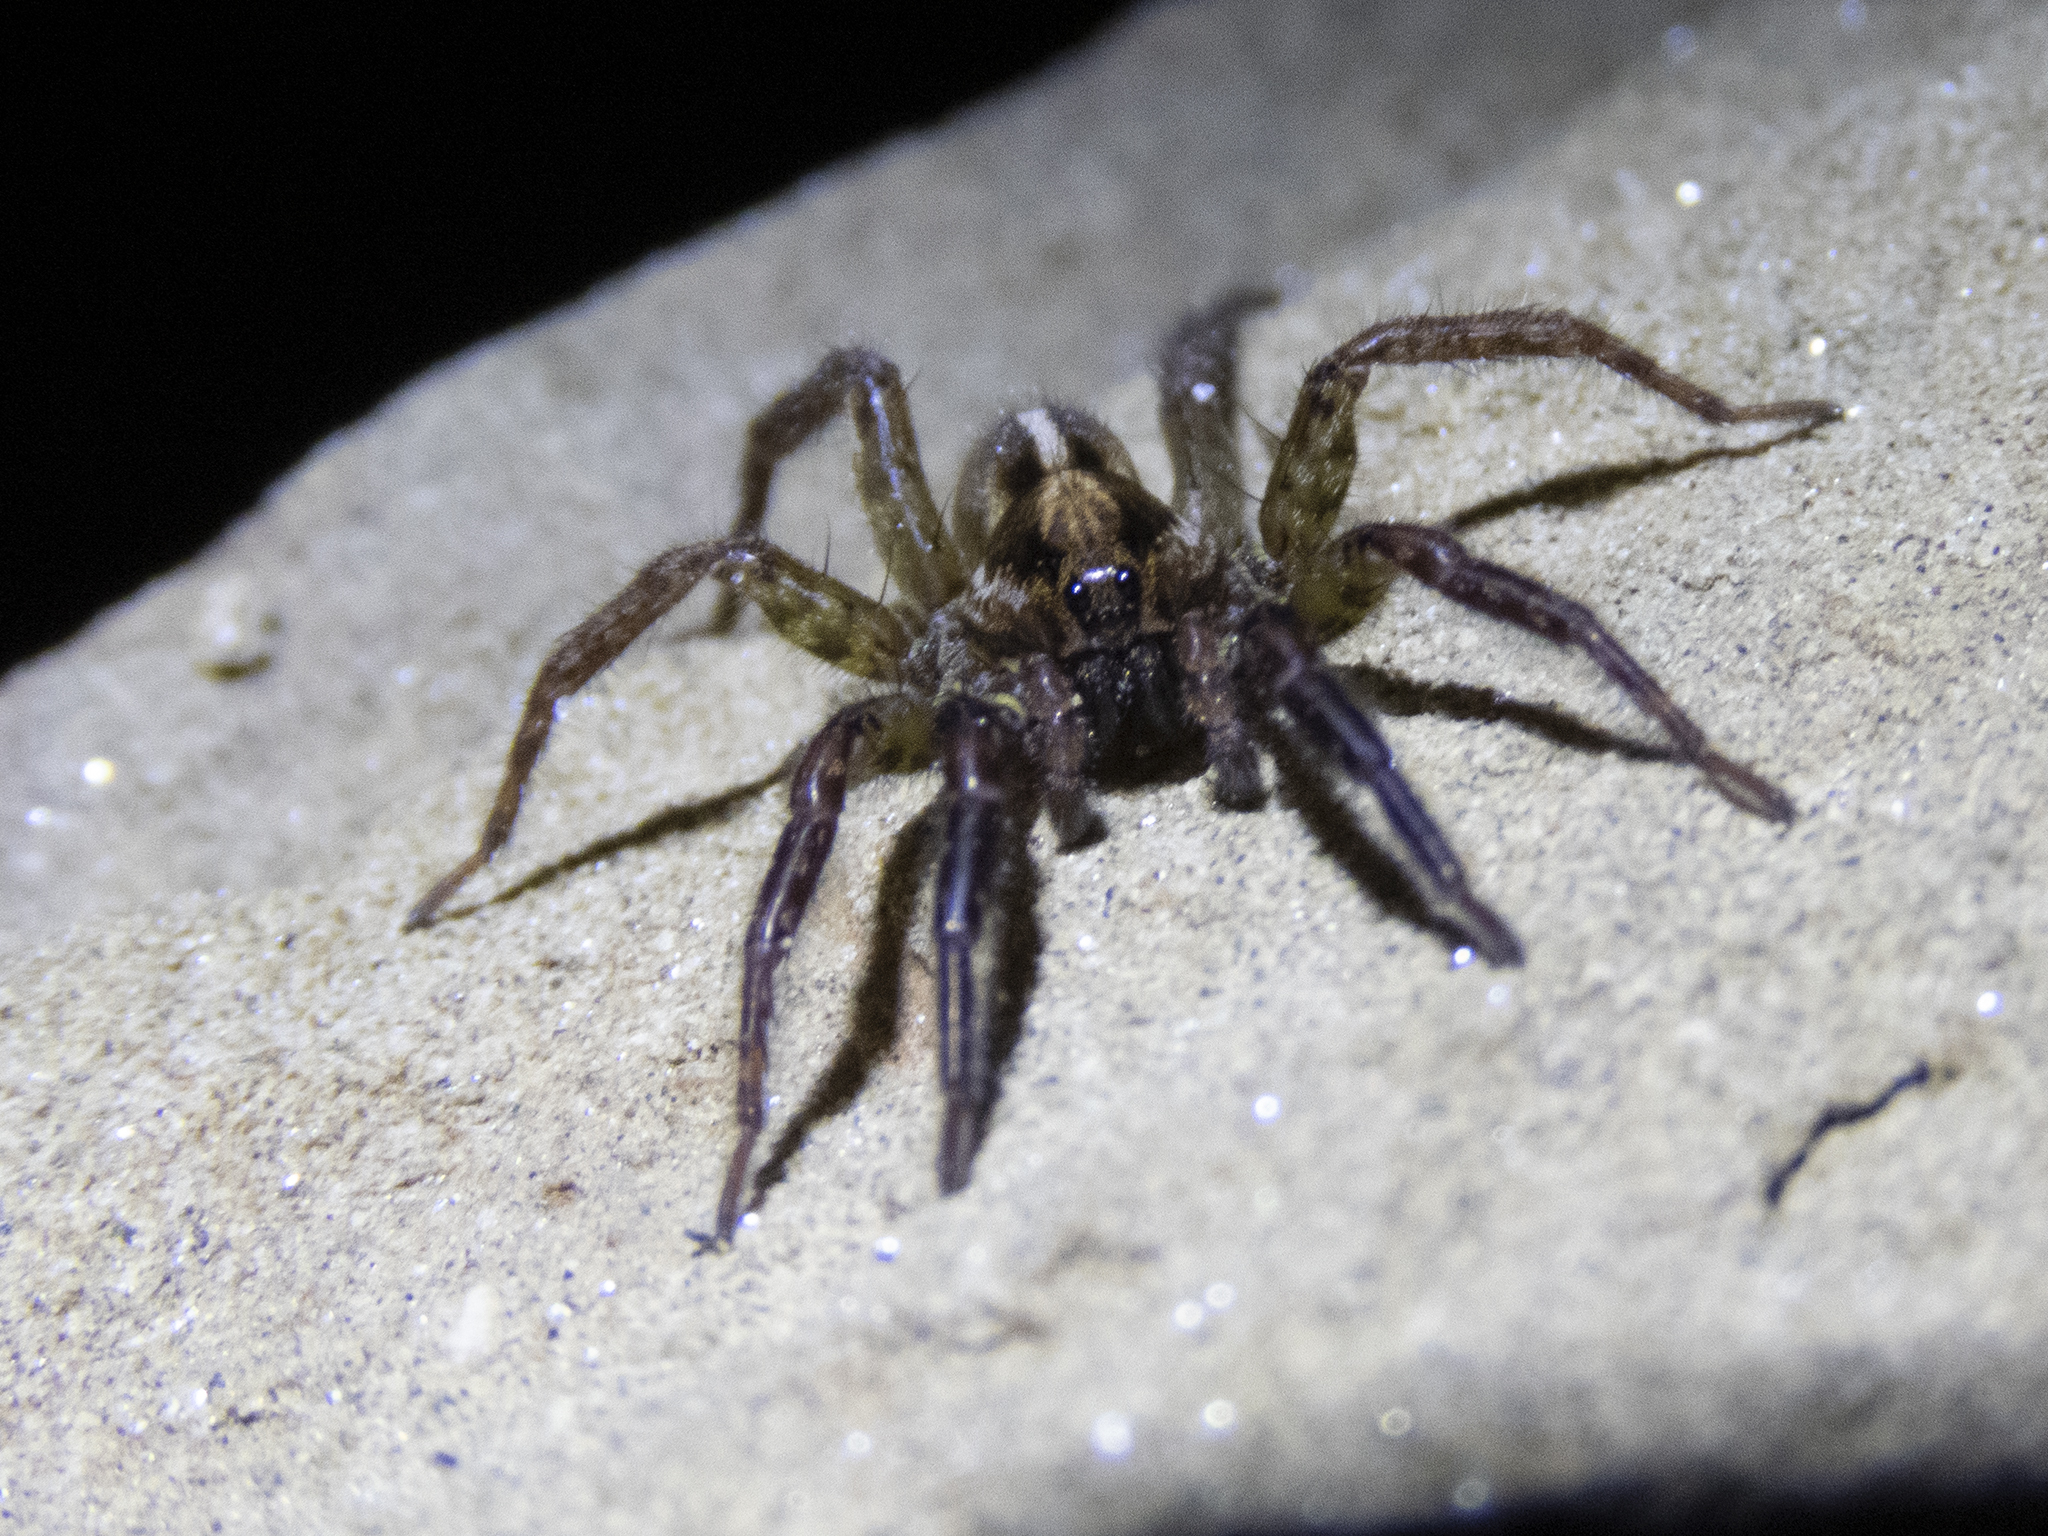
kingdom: Animalia
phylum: Arthropoda
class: Arachnida
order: Araneae
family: Lycosidae
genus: Anoteropsis
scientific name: Anoteropsis hilaris
